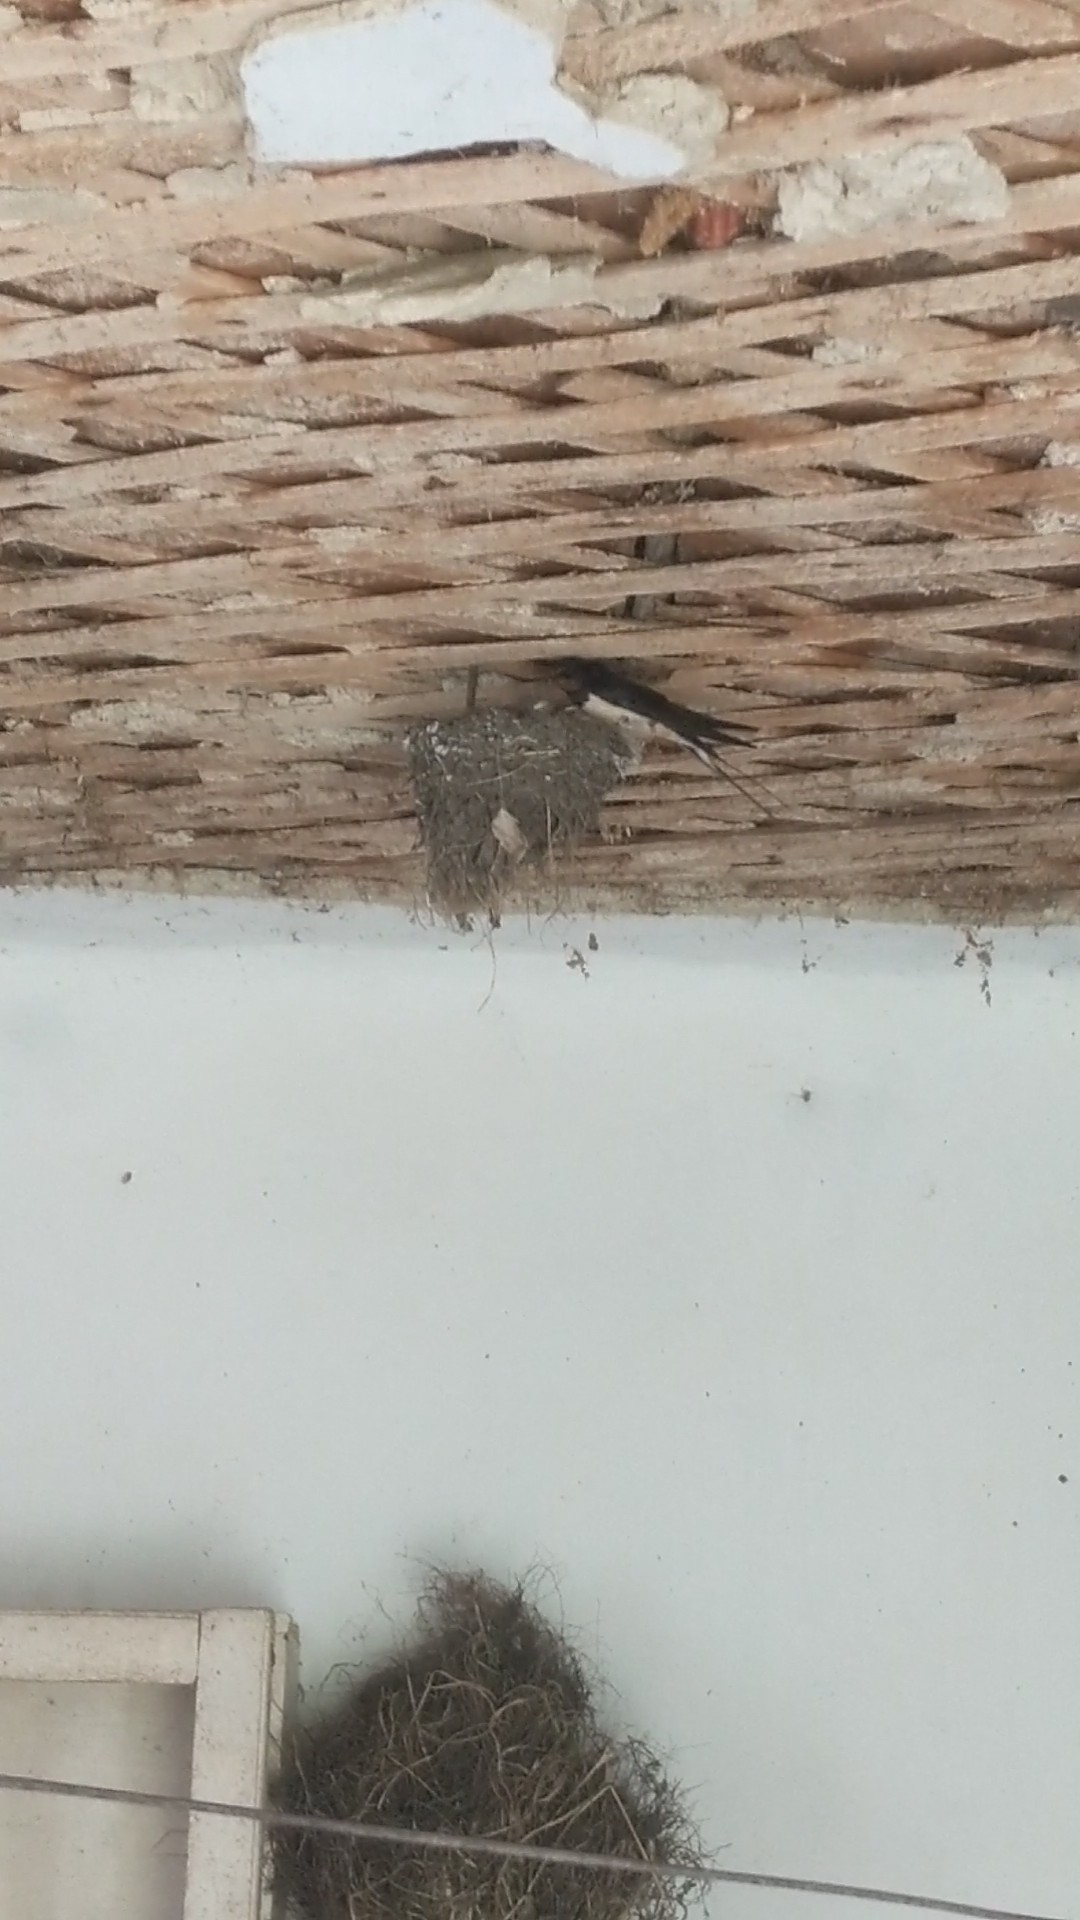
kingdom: Animalia
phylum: Chordata
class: Aves
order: Passeriformes
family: Hirundinidae
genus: Hirundo
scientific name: Hirundo rustica
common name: Barn swallow
